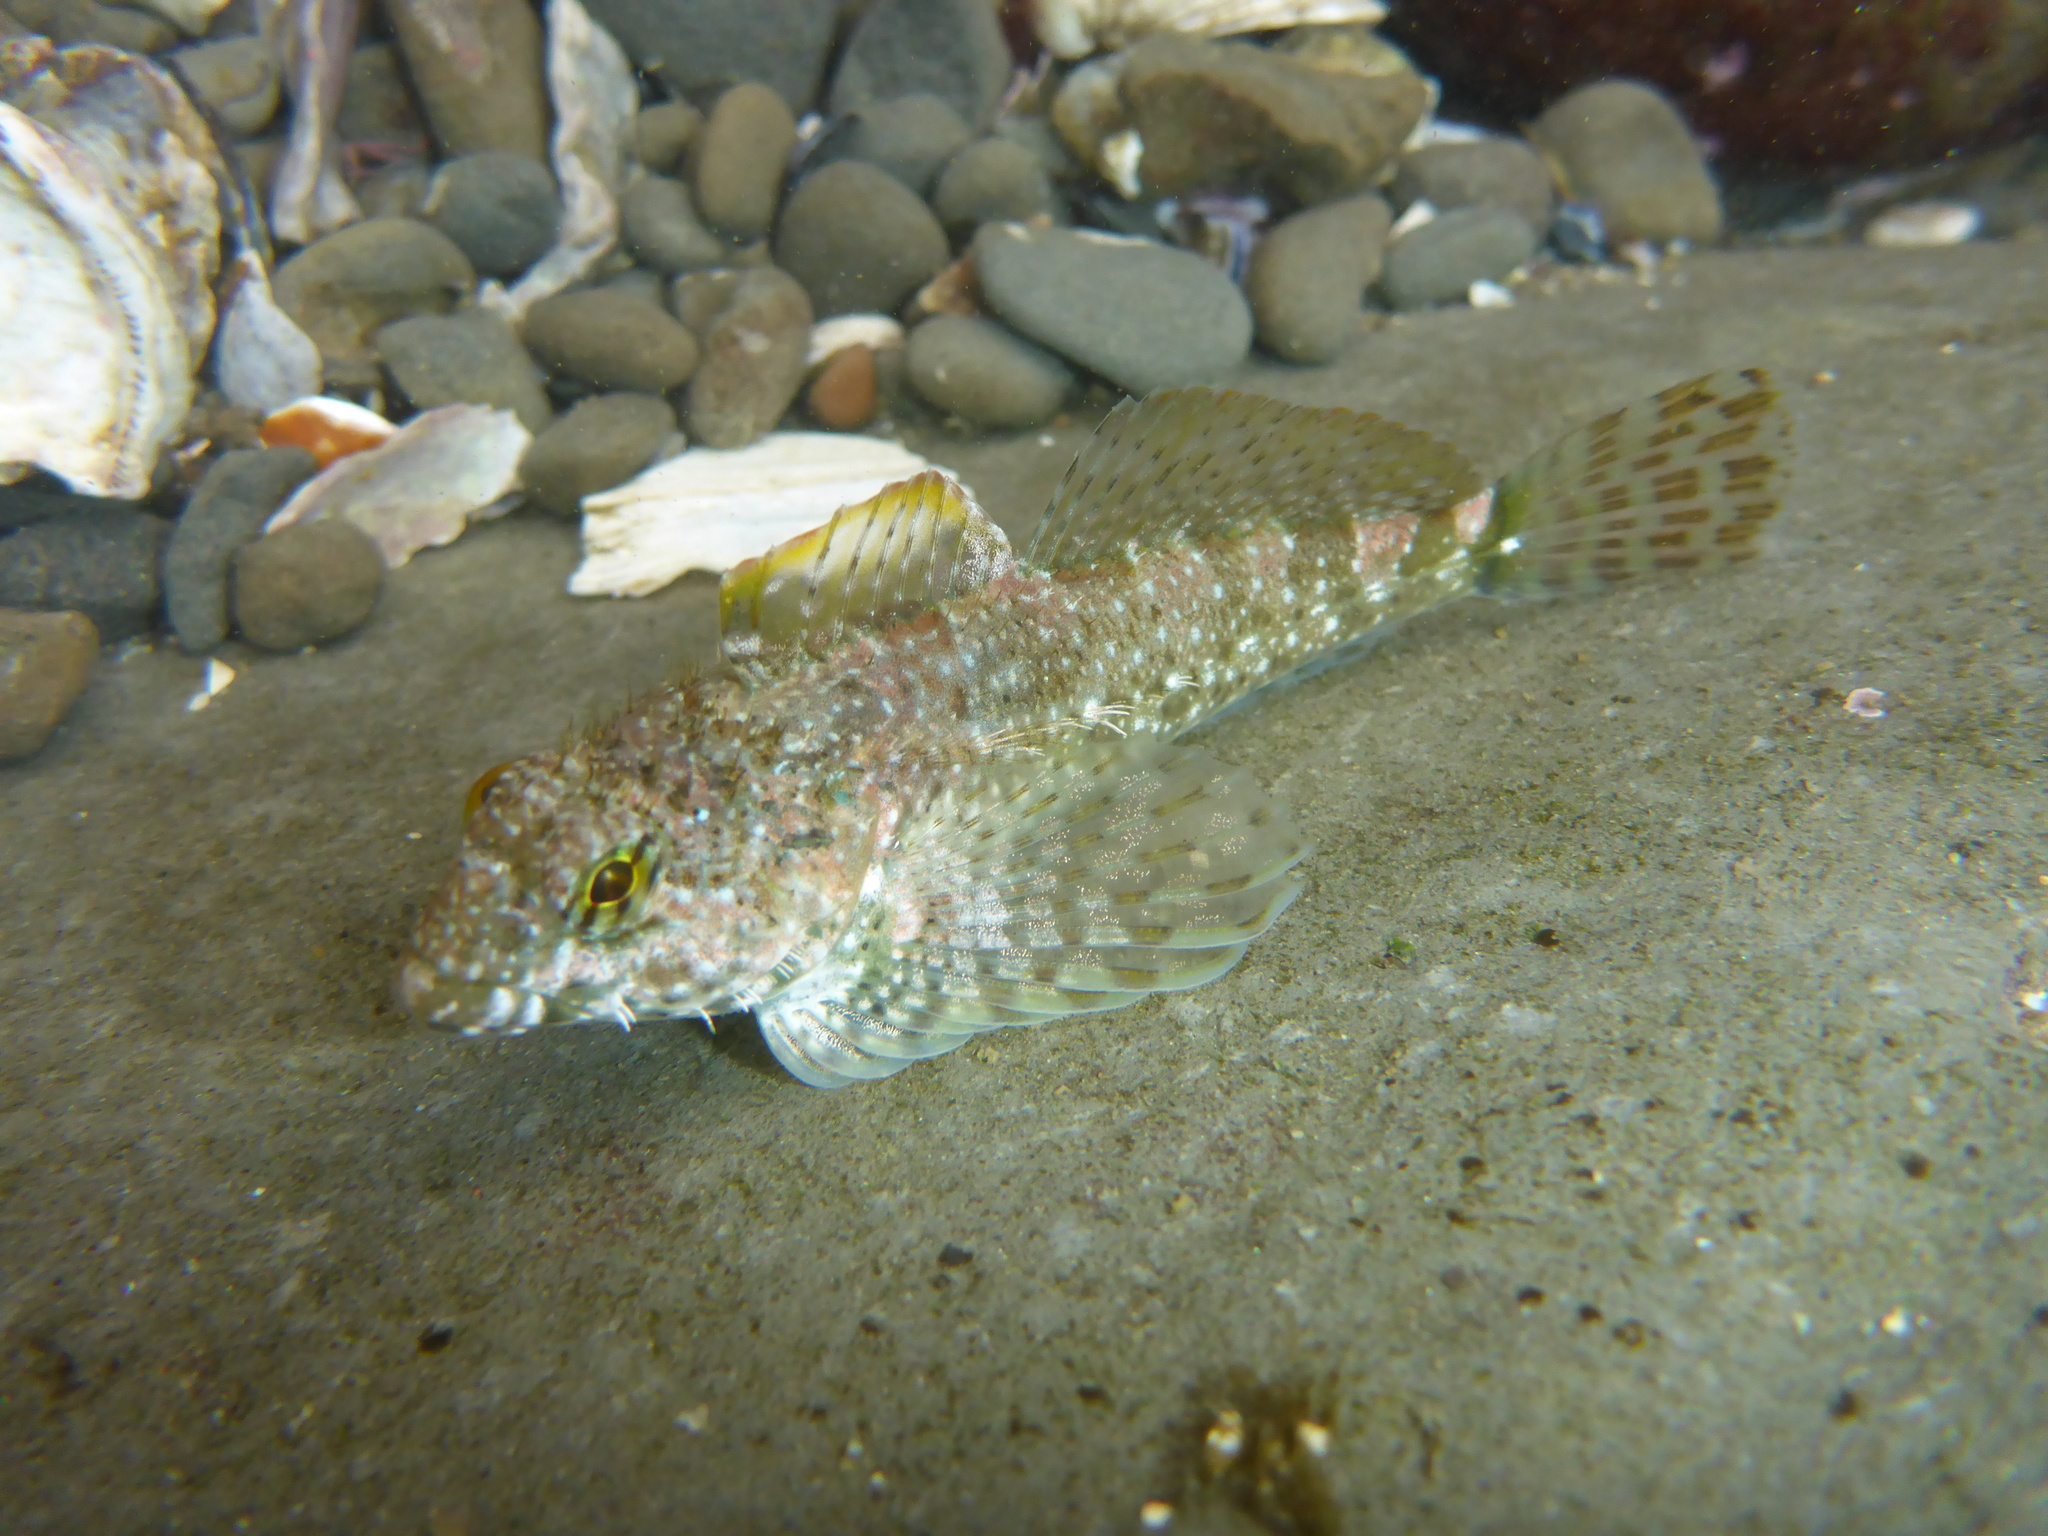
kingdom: Animalia
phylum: Chordata
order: Scorpaeniformes
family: Cottidae
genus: Clinocottus
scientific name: Clinocottus analis
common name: Woolly sculpin
